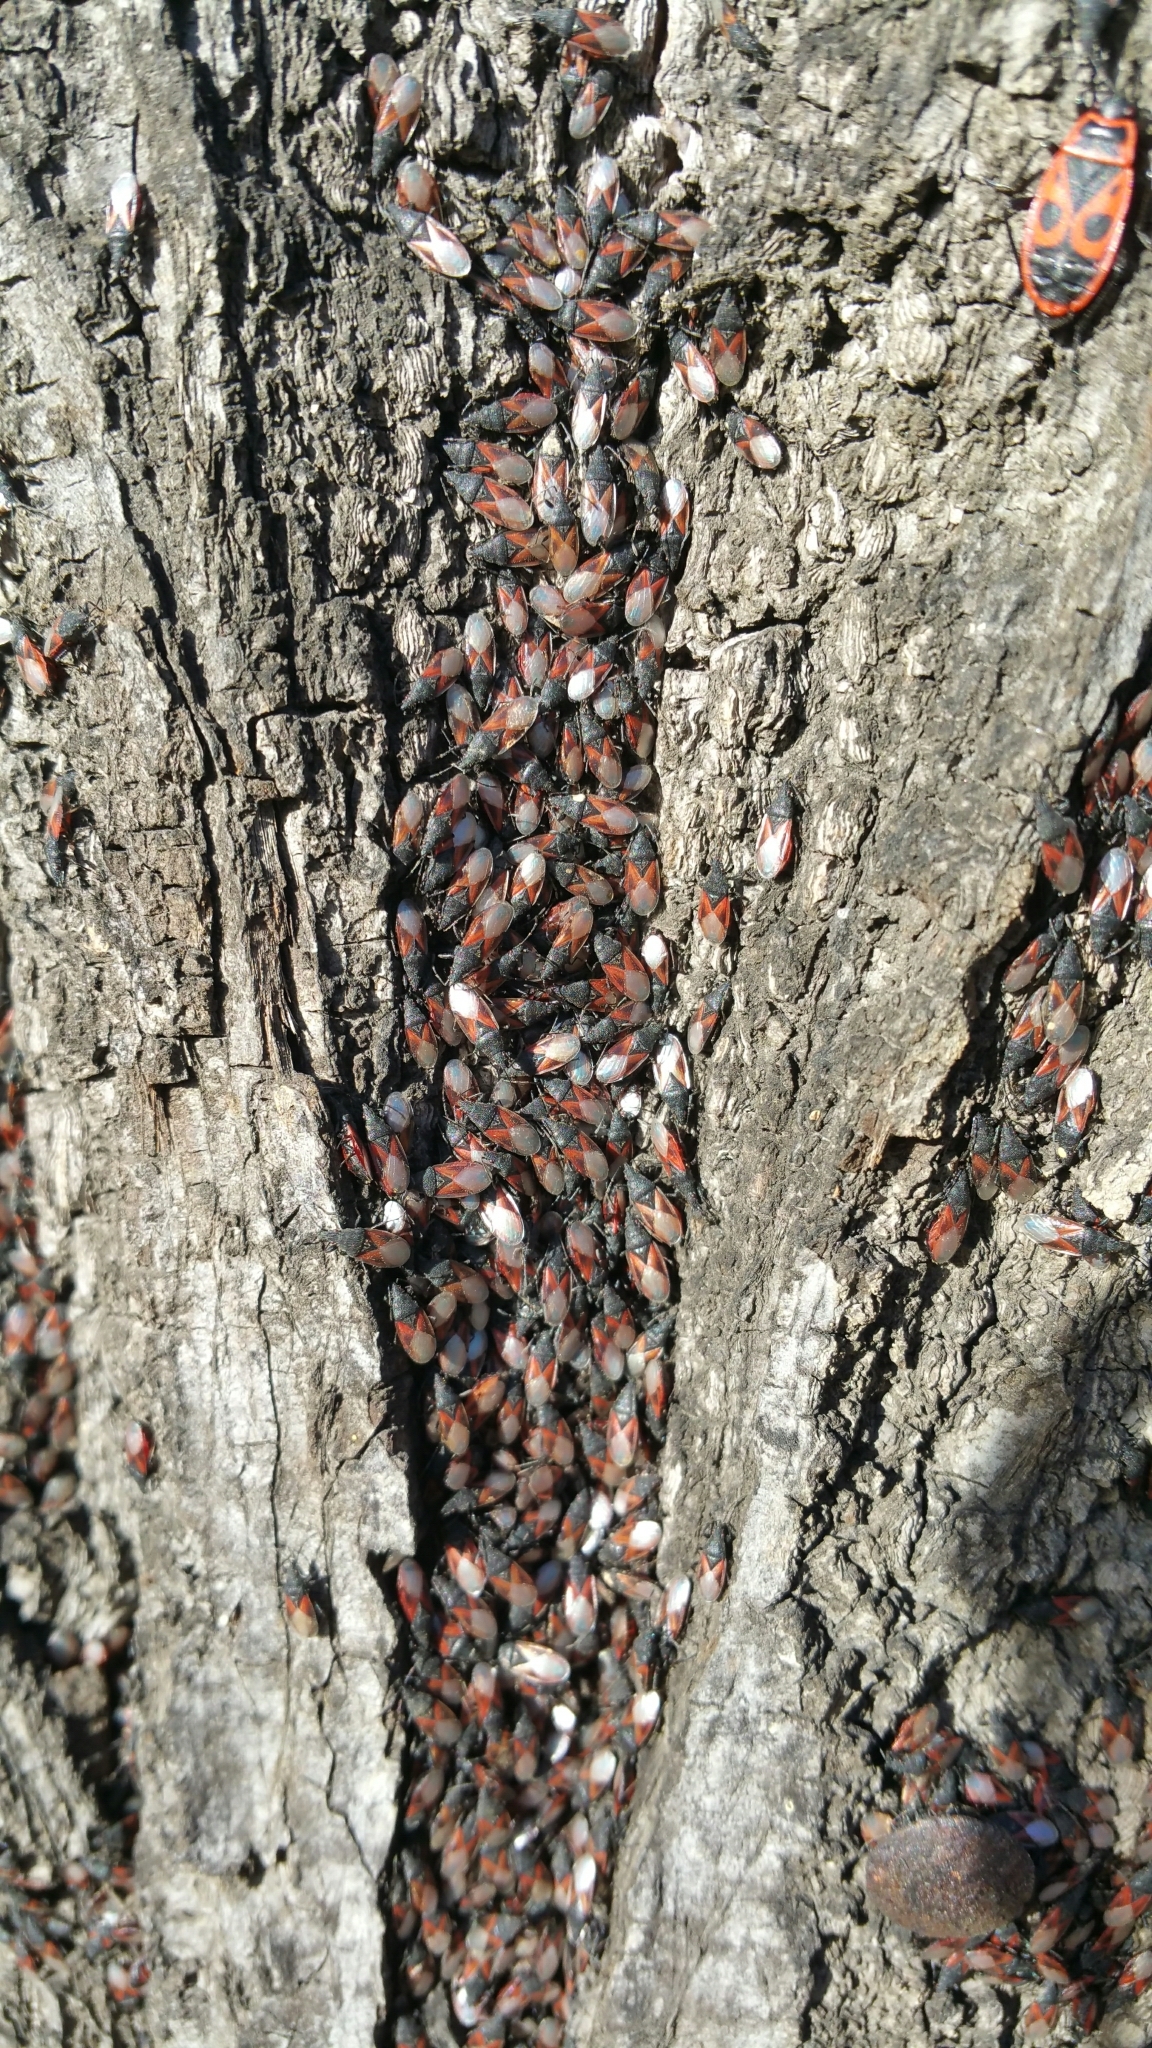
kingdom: Animalia
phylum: Arthropoda
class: Insecta
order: Hemiptera
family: Oxycarenidae
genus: Oxycarenus
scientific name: Oxycarenus lavaterae
